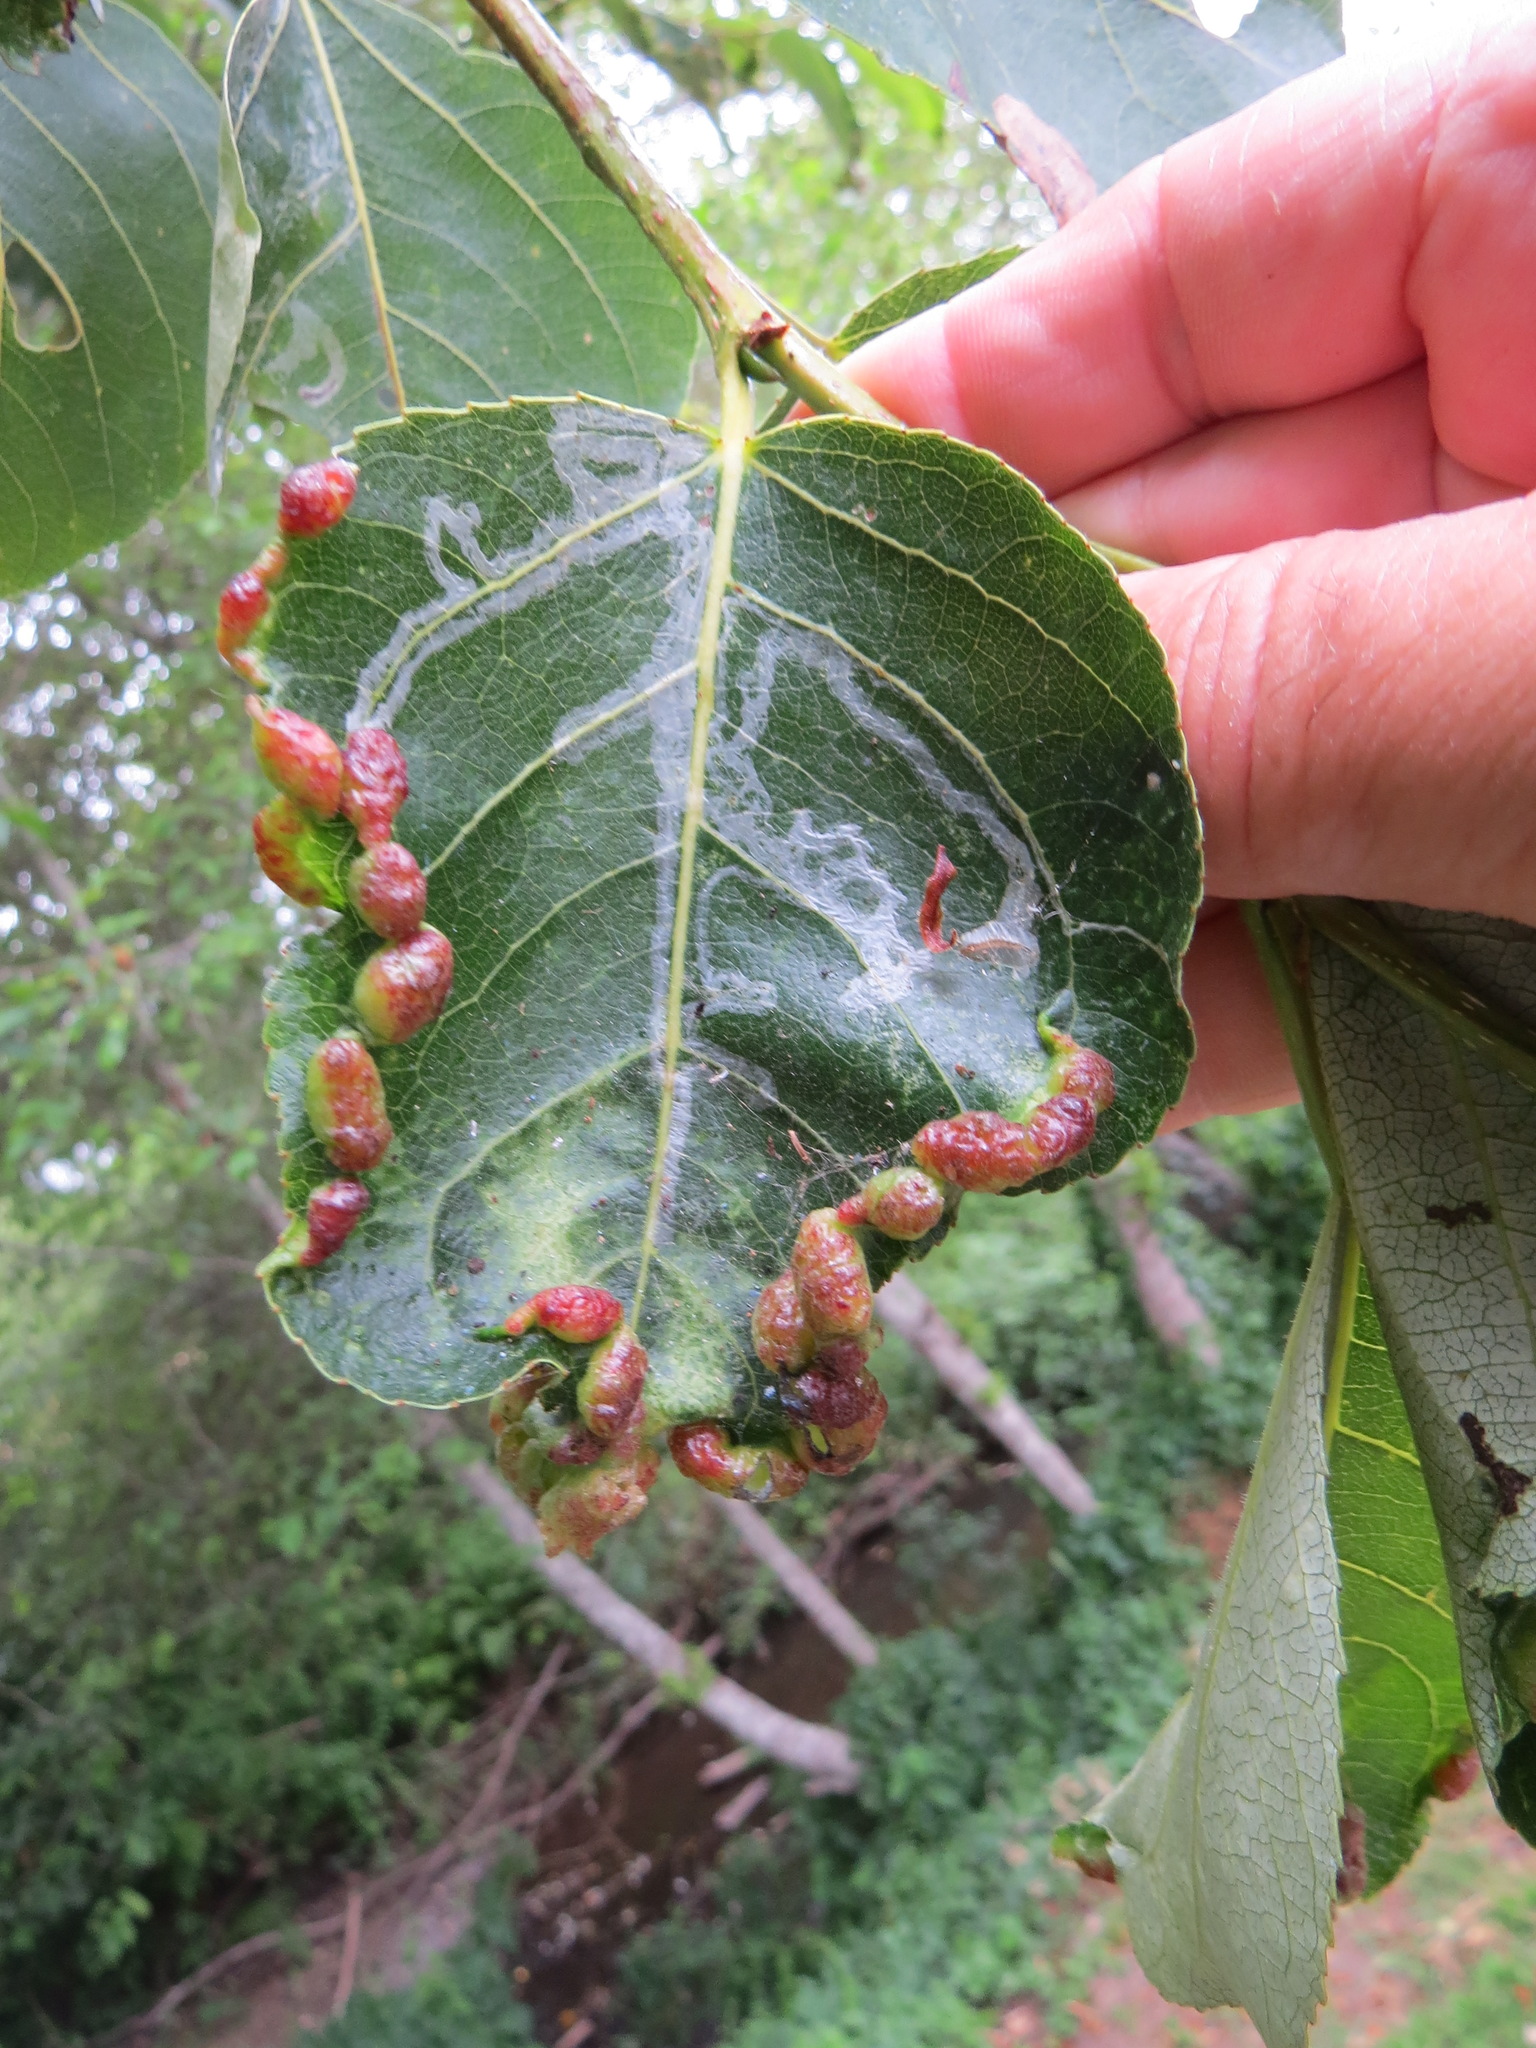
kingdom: Animalia
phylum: Arthropoda
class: Insecta
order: Hemiptera
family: Aphididae
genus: Thecabius
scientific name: Thecabius populimonilis
